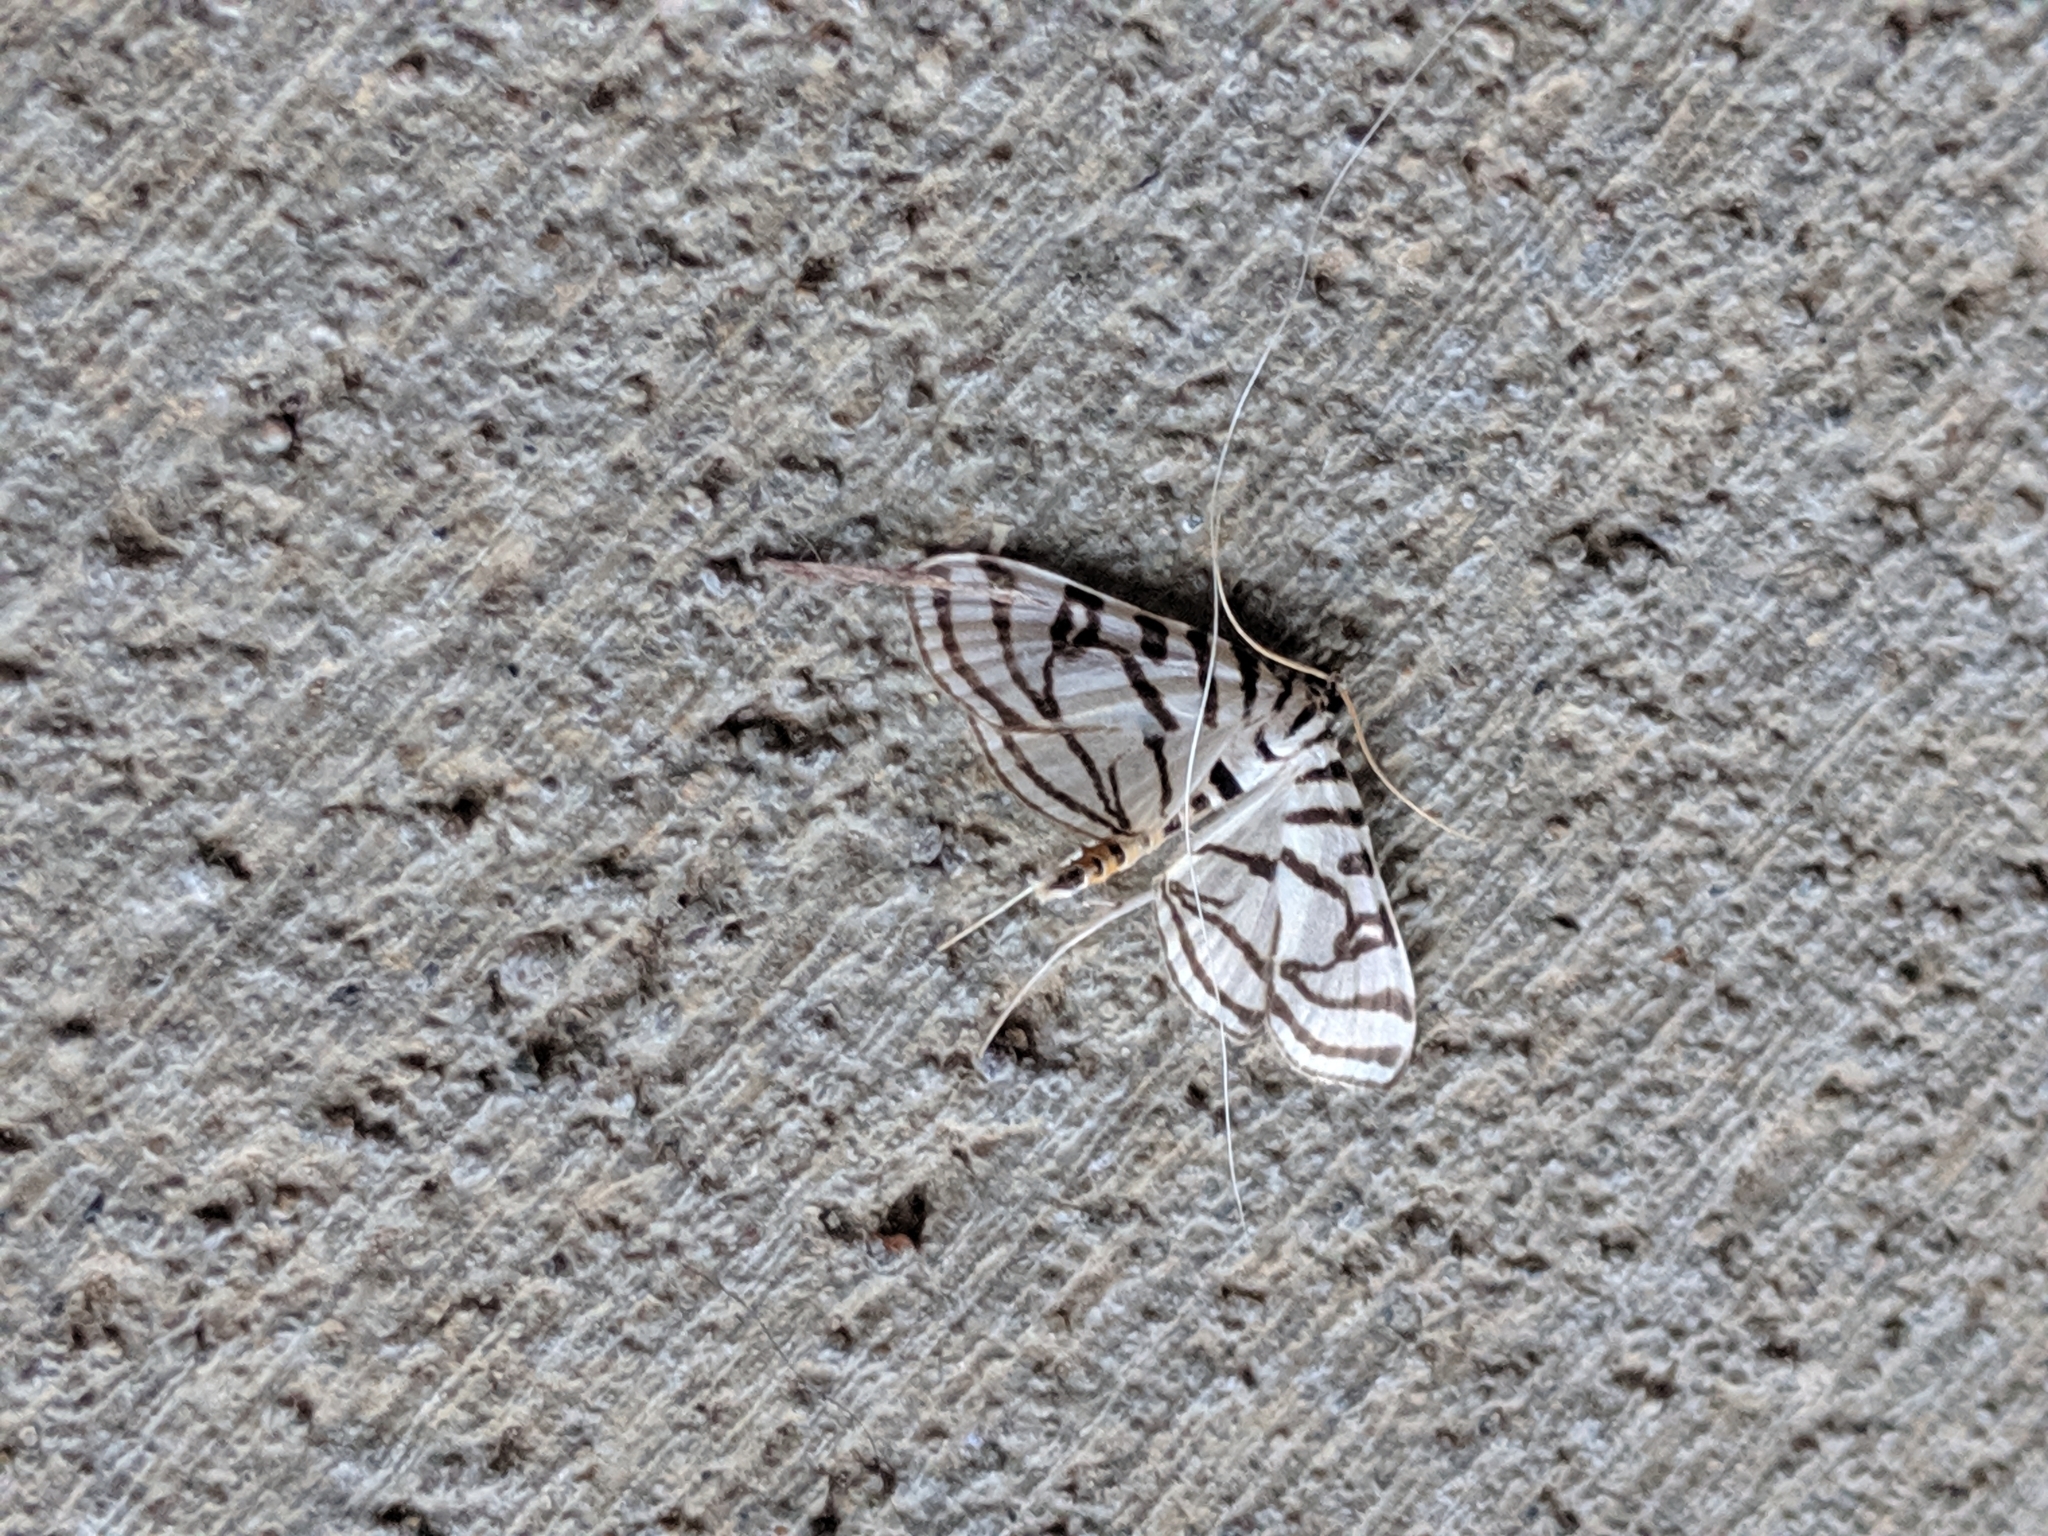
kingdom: Animalia
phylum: Arthropoda
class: Insecta
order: Lepidoptera
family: Crambidae
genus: Conchylodes
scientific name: Conchylodes ovulalis
